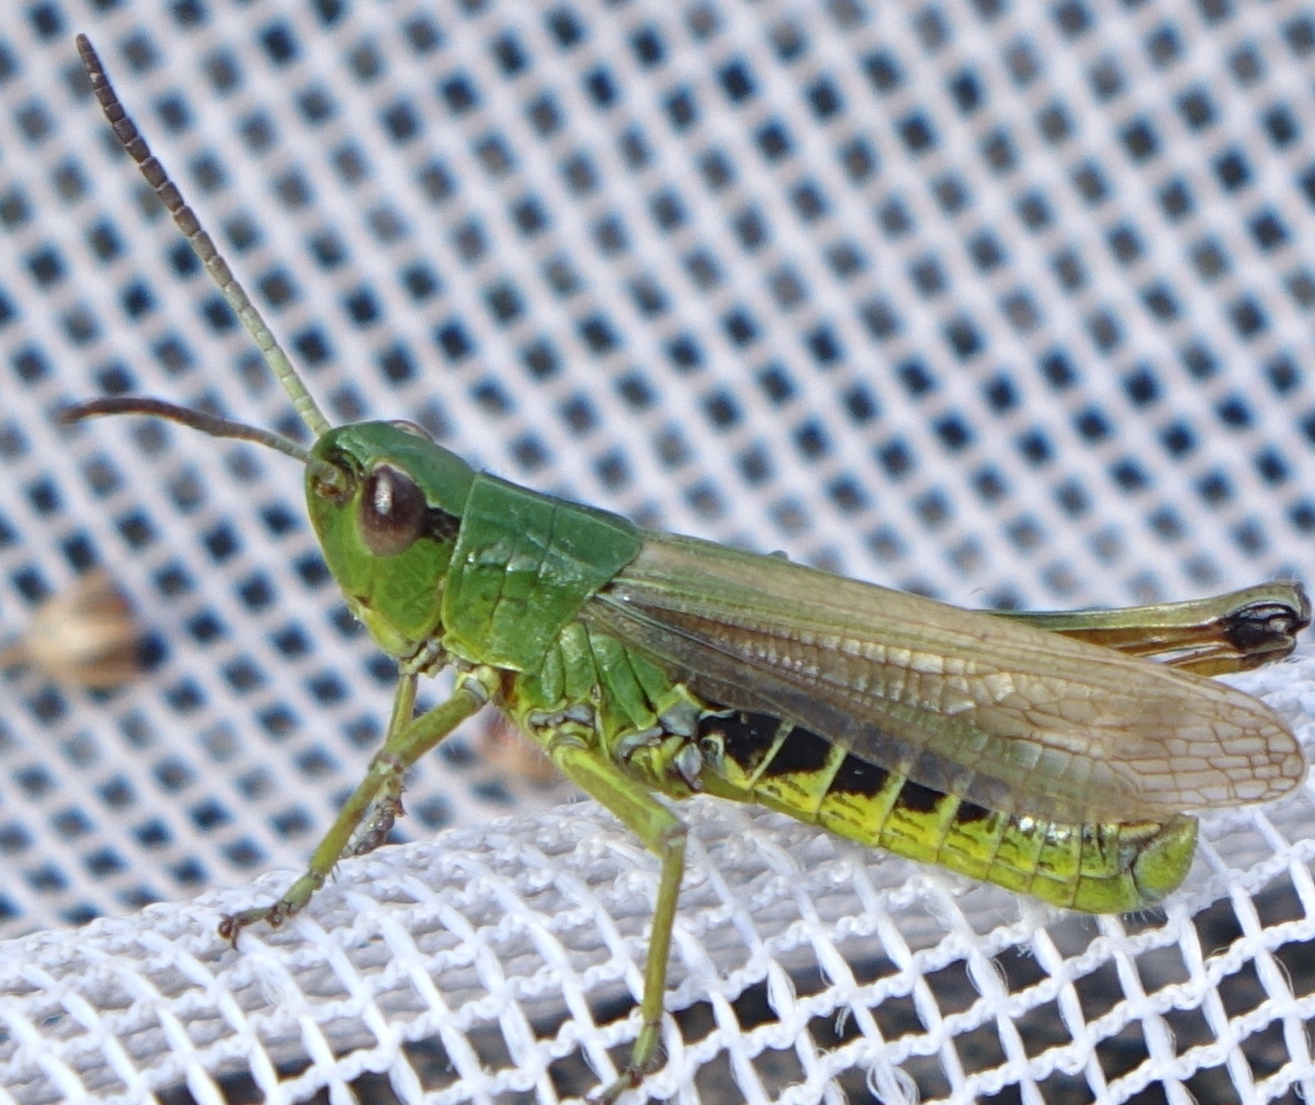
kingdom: Animalia
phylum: Arthropoda
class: Insecta
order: Orthoptera
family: Acrididae
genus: Pseudochorthippus
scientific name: Pseudochorthippus montanus
